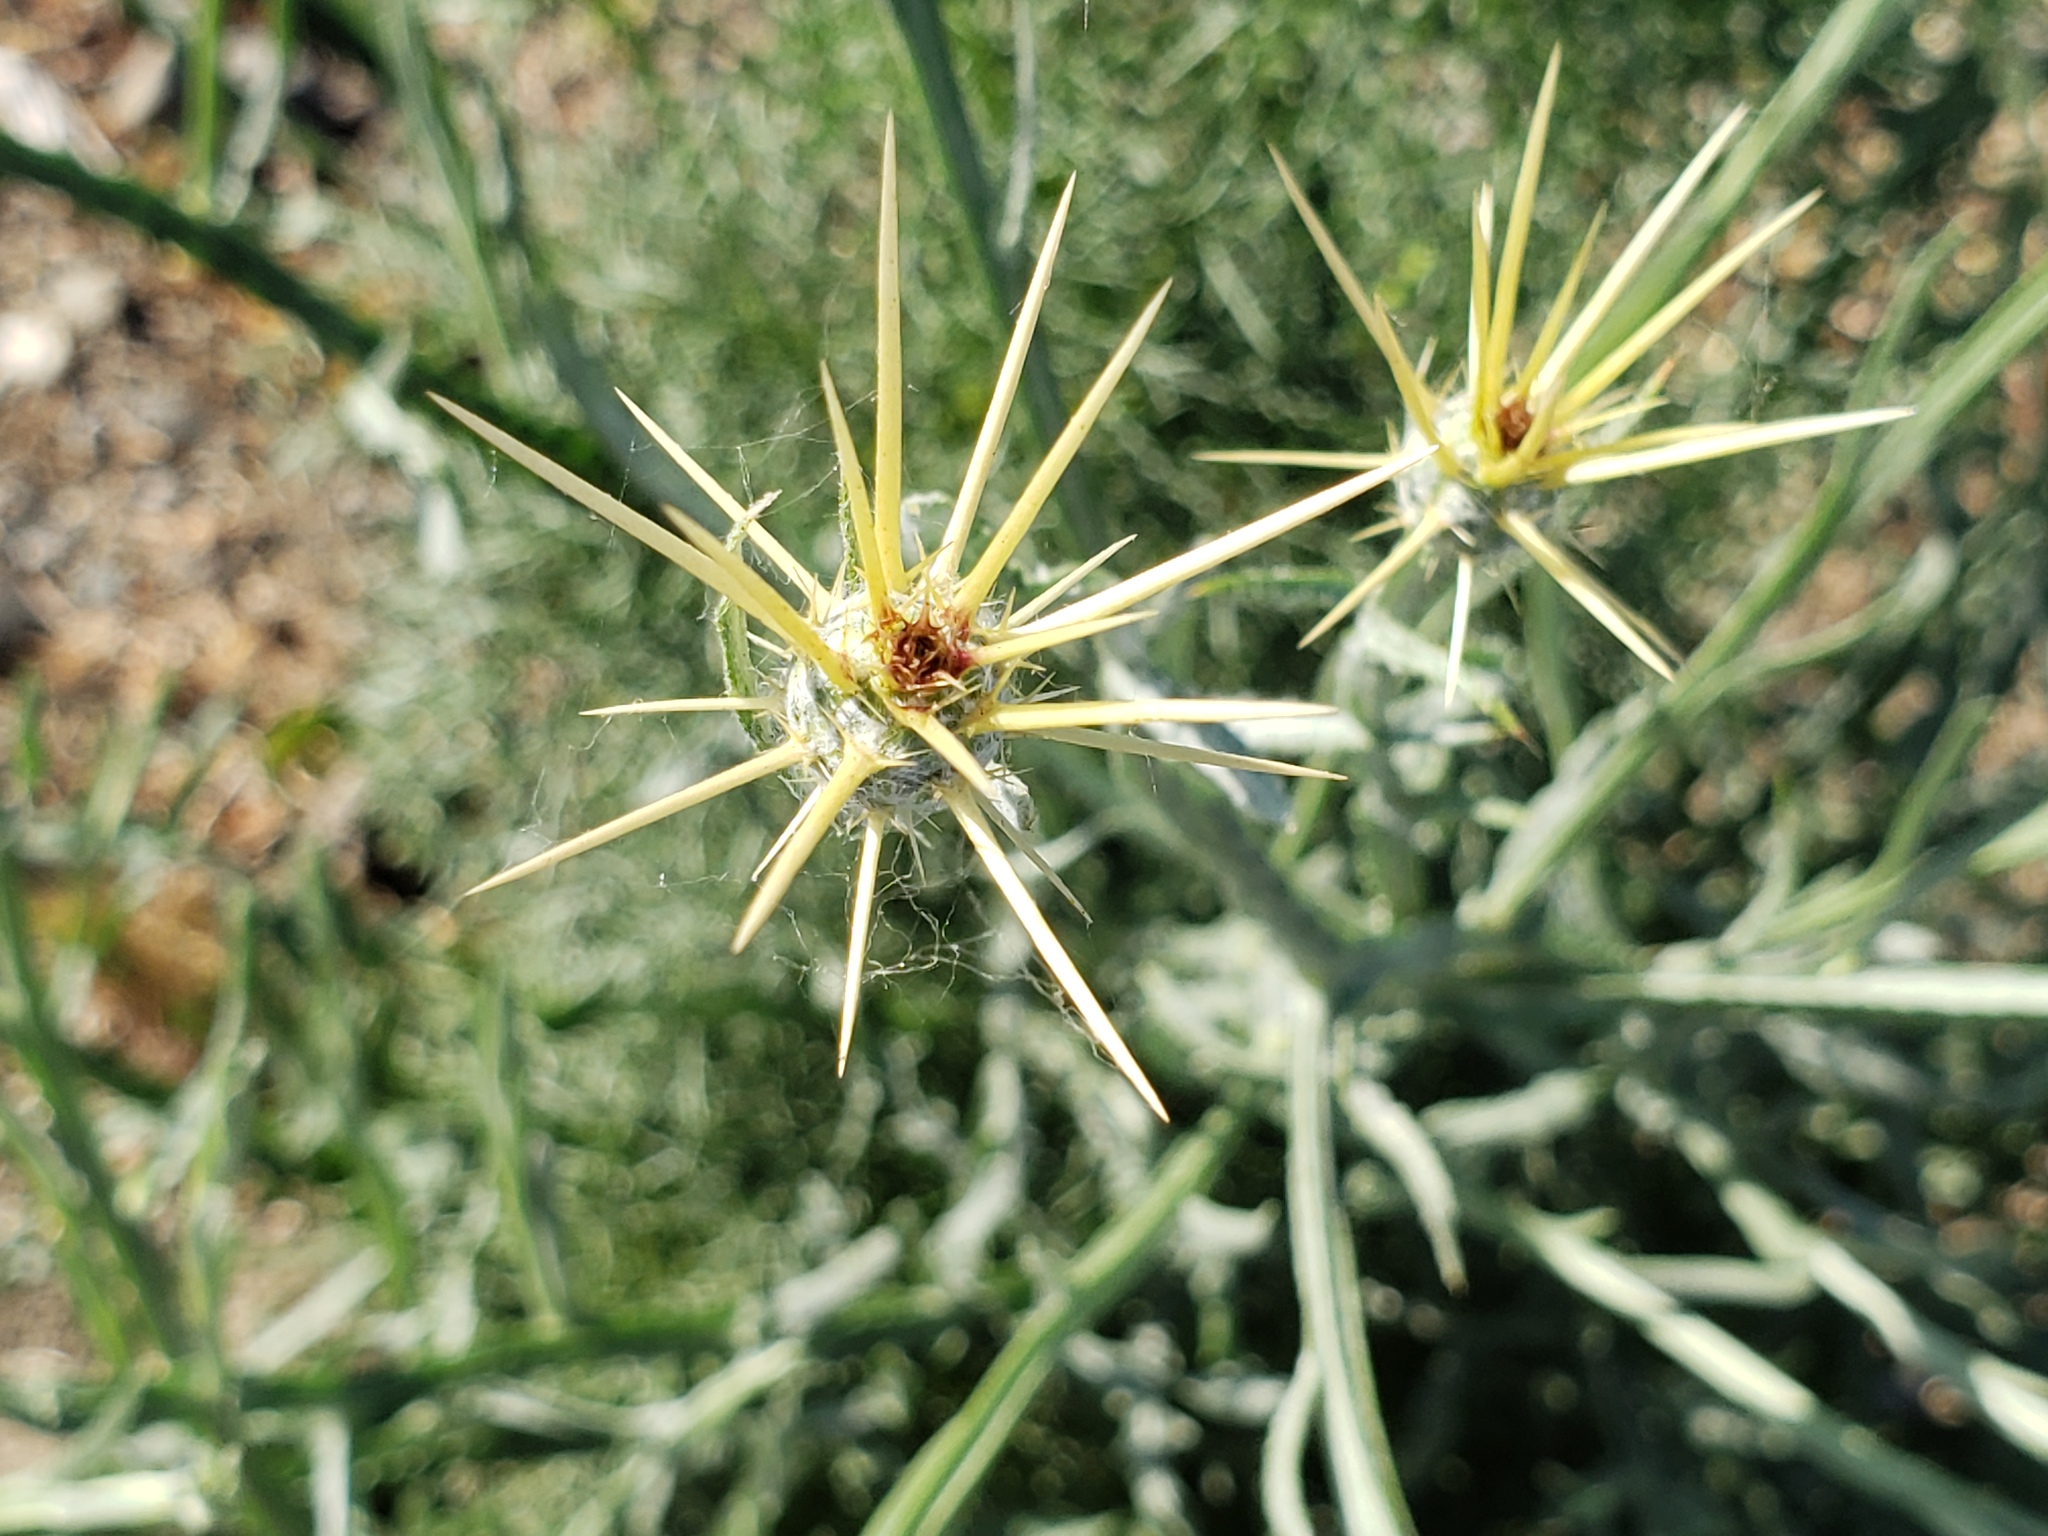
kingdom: Plantae
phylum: Tracheophyta
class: Magnoliopsida
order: Asterales
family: Asteraceae
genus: Centaurea
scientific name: Centaurea solstitialis
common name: Yellow star-thistle
